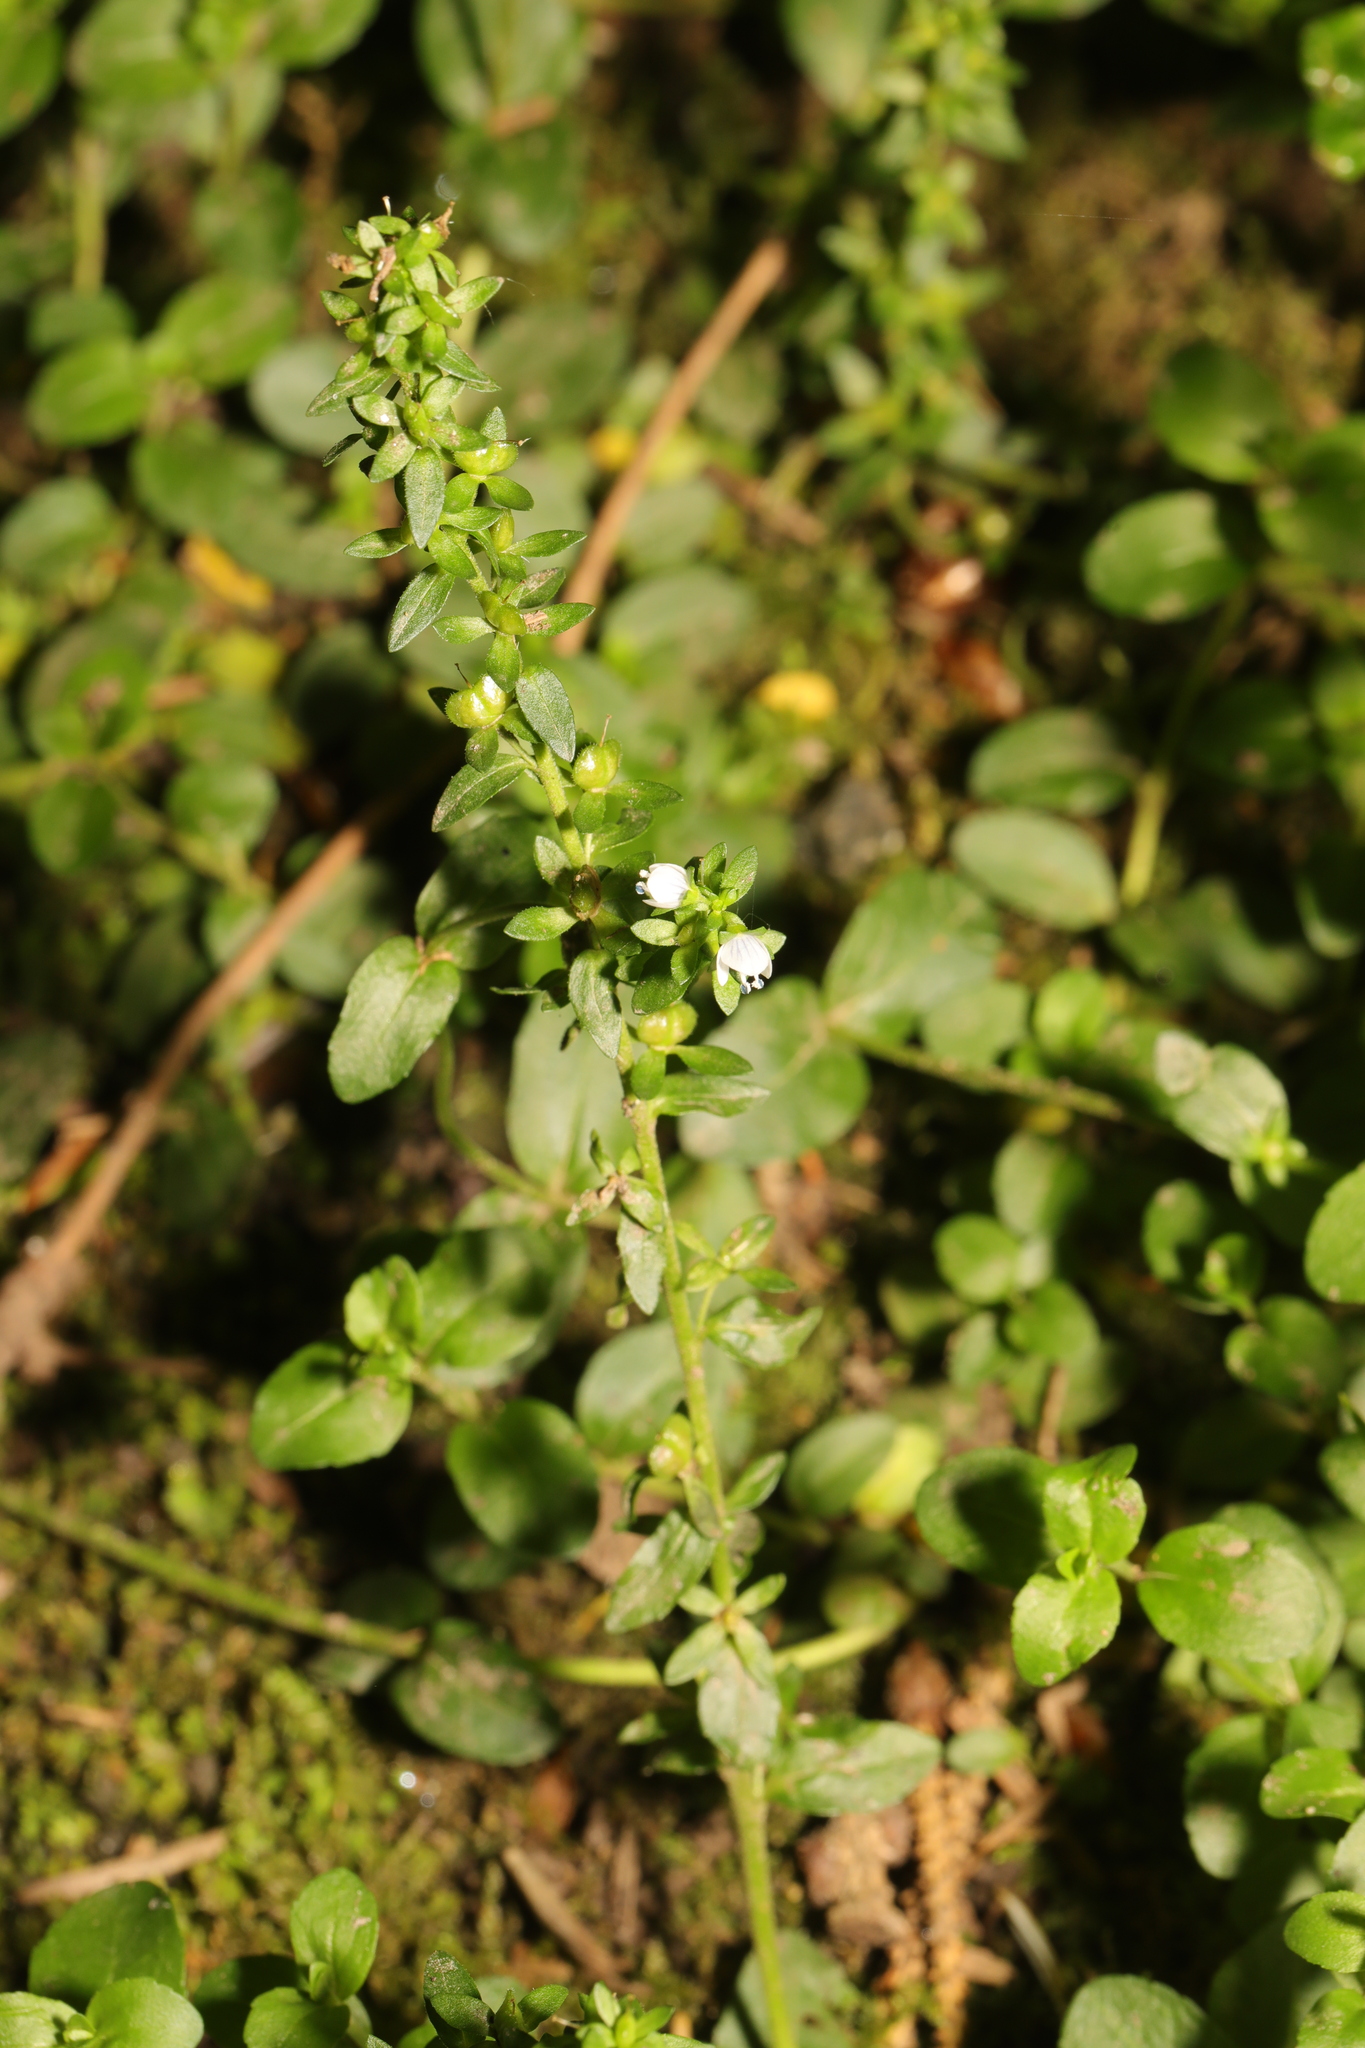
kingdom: Plantae
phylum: Tracheophyta
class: Magnoliopsida
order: Lamiales
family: Plantaginaceae
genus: Veronica
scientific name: Veronica serpyllifolia
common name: Thyme-leaved speedwell
